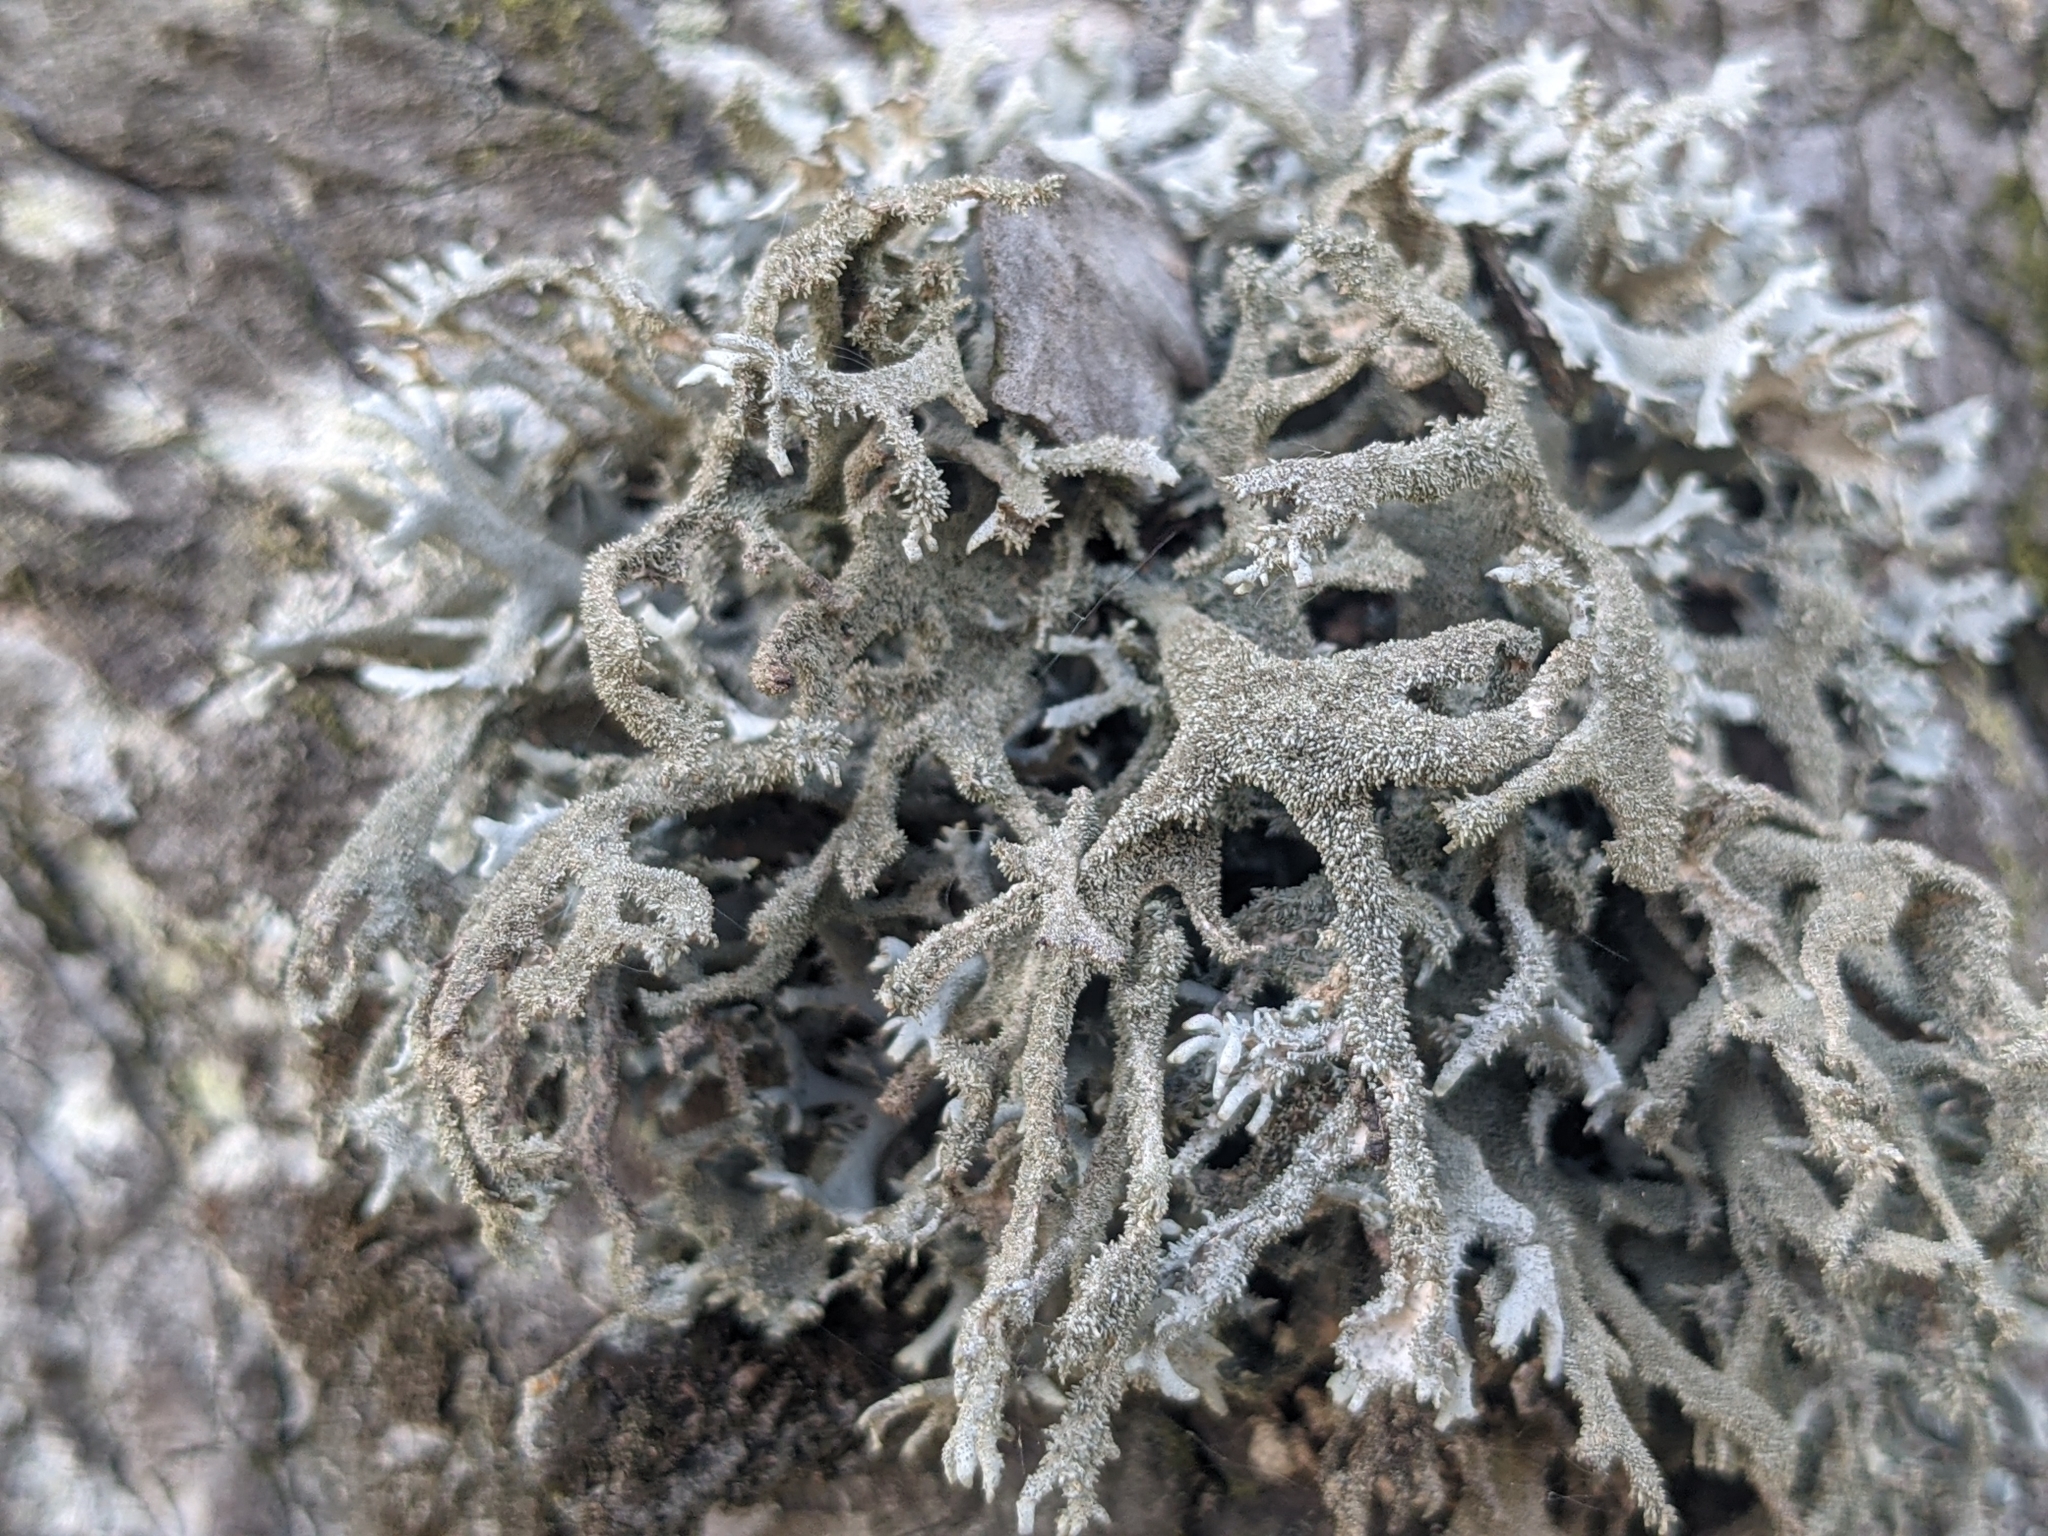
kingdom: Fungi
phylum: Ascomycota
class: Lecanoromycetes
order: Lecanorales
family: Parmeliaceae
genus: Pseudevernia
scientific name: Pseudevernia furfuracea
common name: Tree moss
